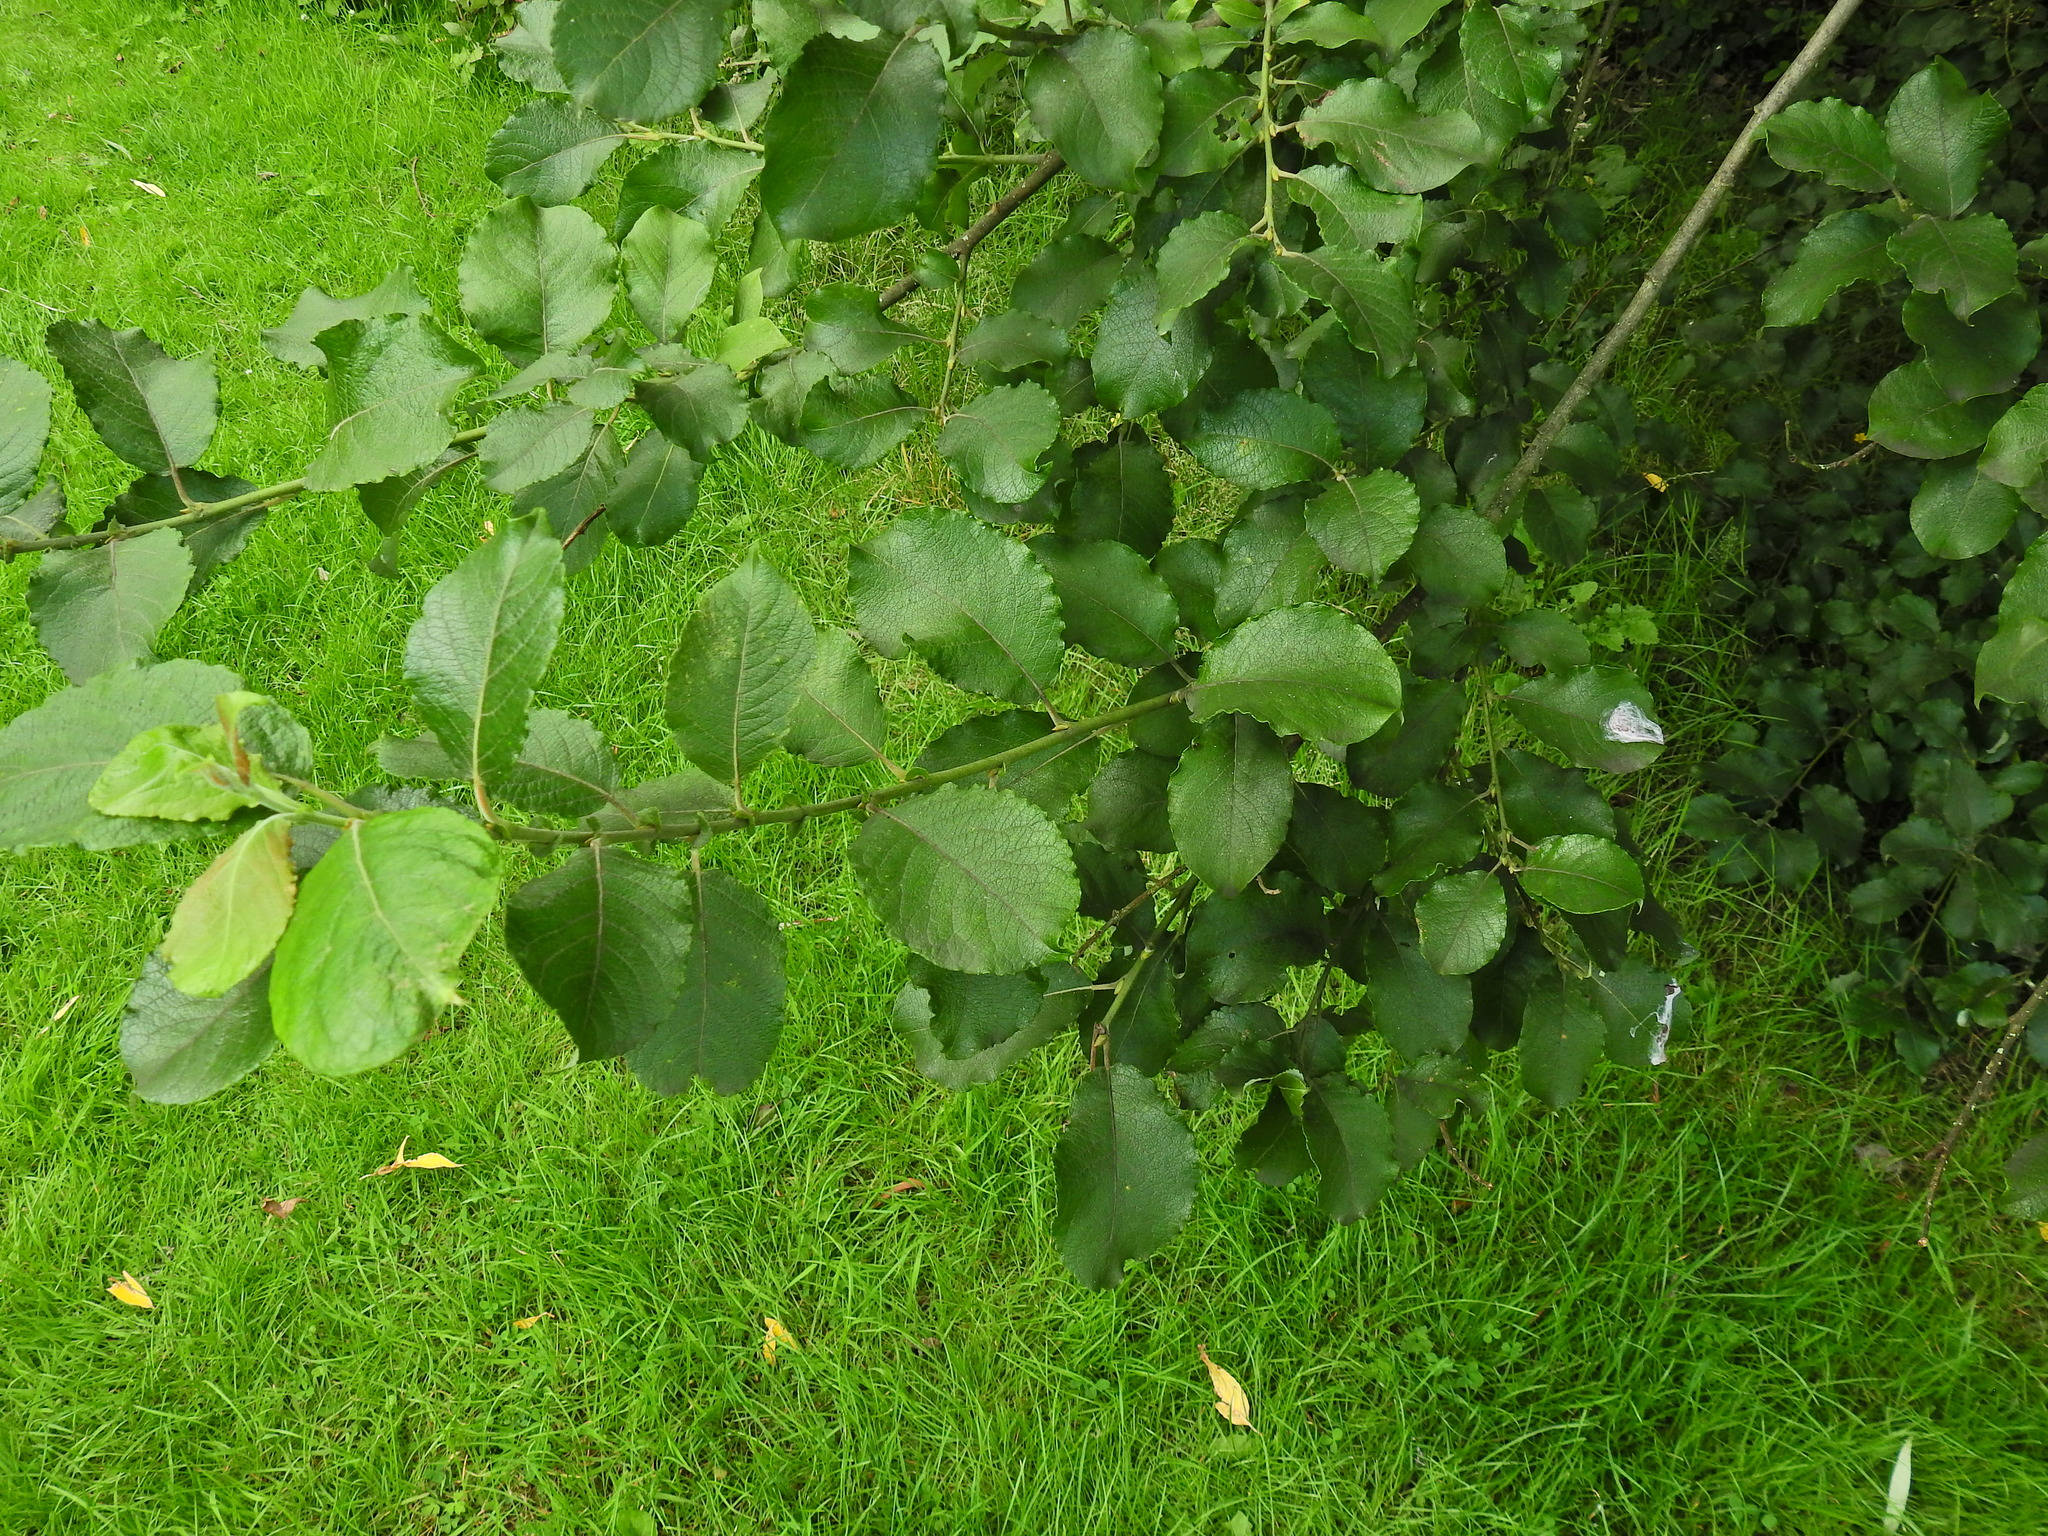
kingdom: Plantae
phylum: Tracheophyta
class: Magnoliopsida
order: Malpighiales
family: Salicaceae
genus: Salix
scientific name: Salix caprea
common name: Goat willow
